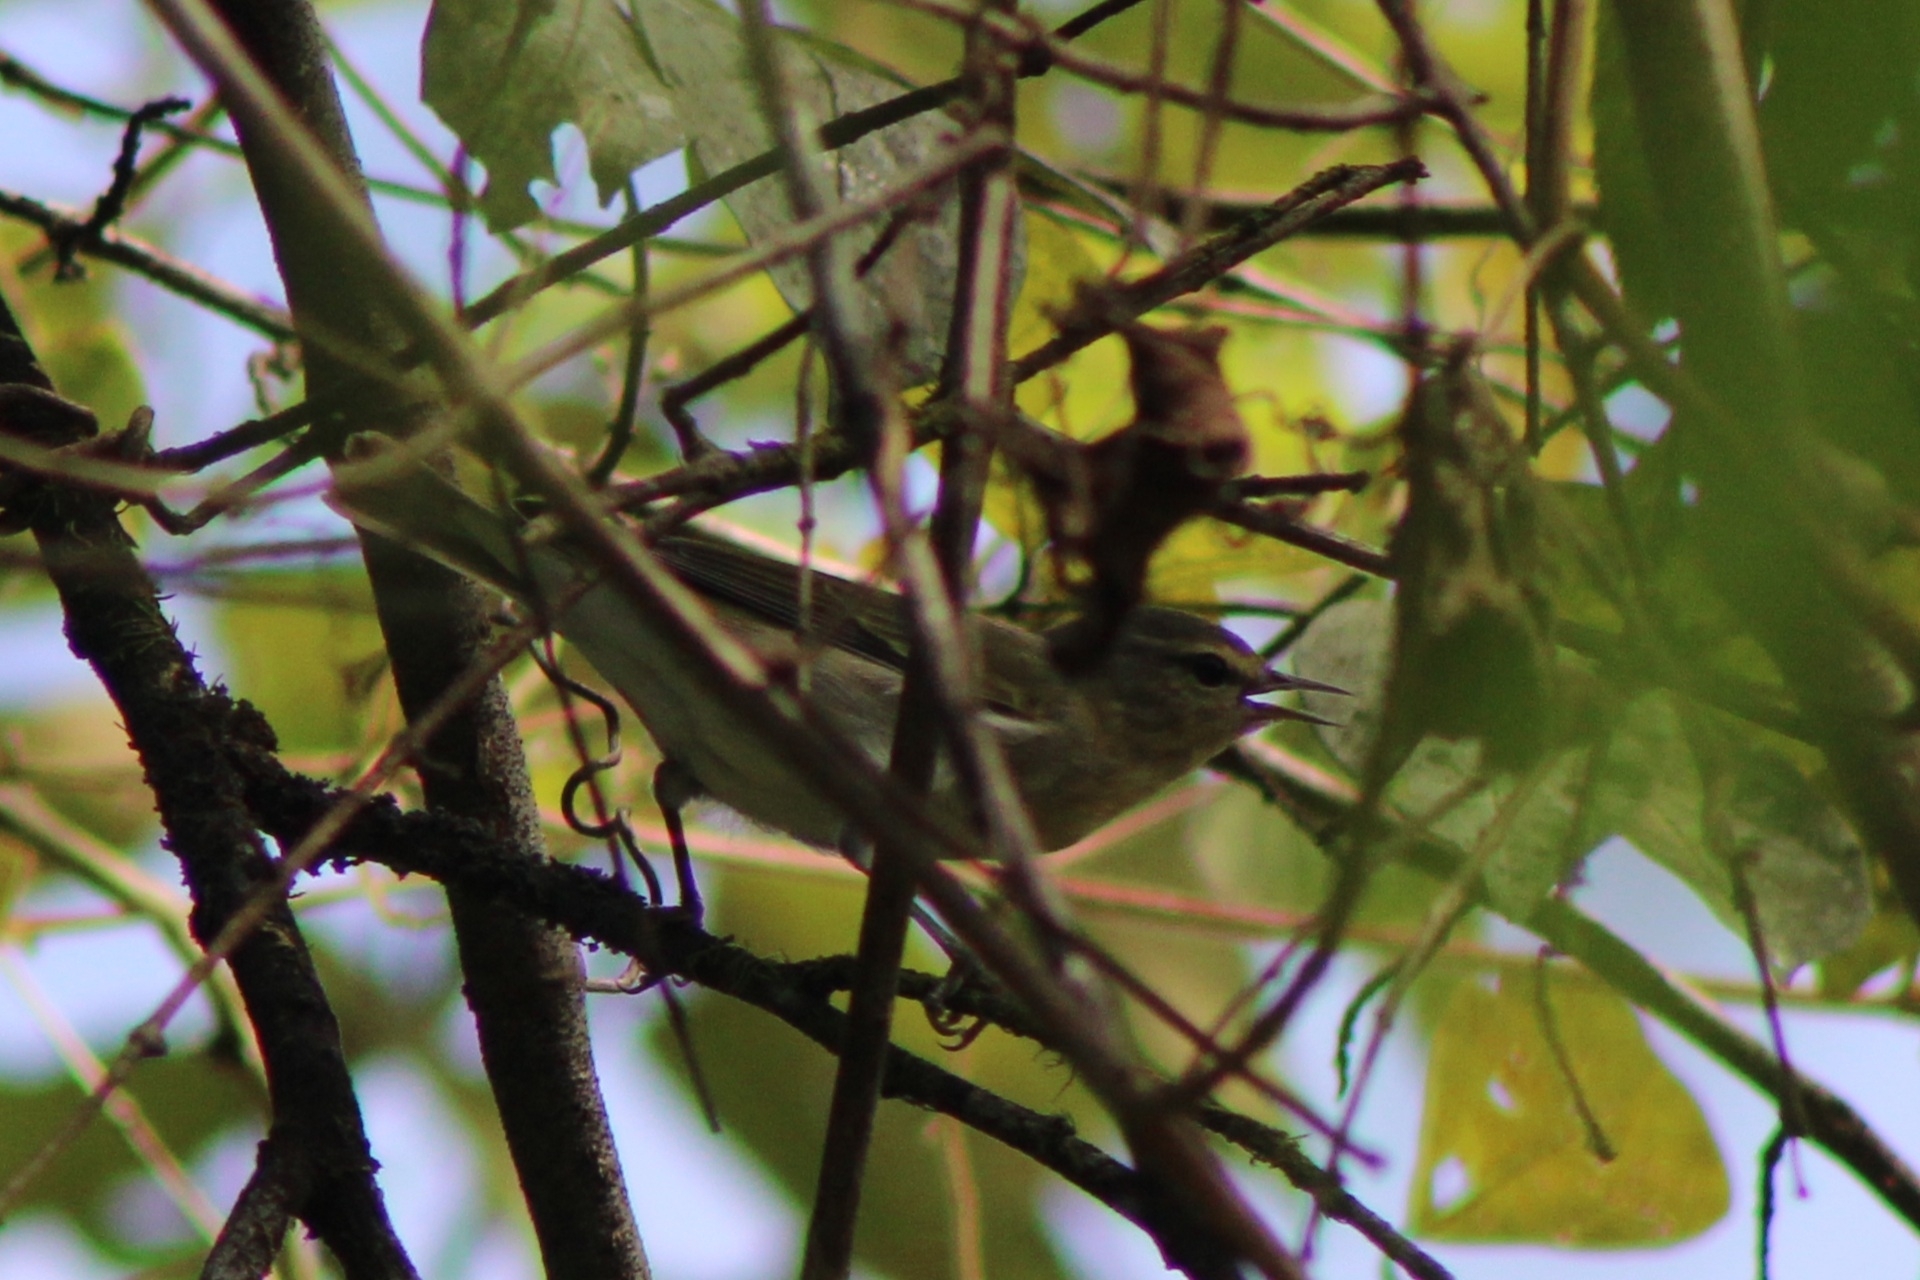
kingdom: Animalia
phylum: Chordata
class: Aves
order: Passeriformes
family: Parulidae
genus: Leiothlypis
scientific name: Leiothlypis peregrina
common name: Tennessee warbler
